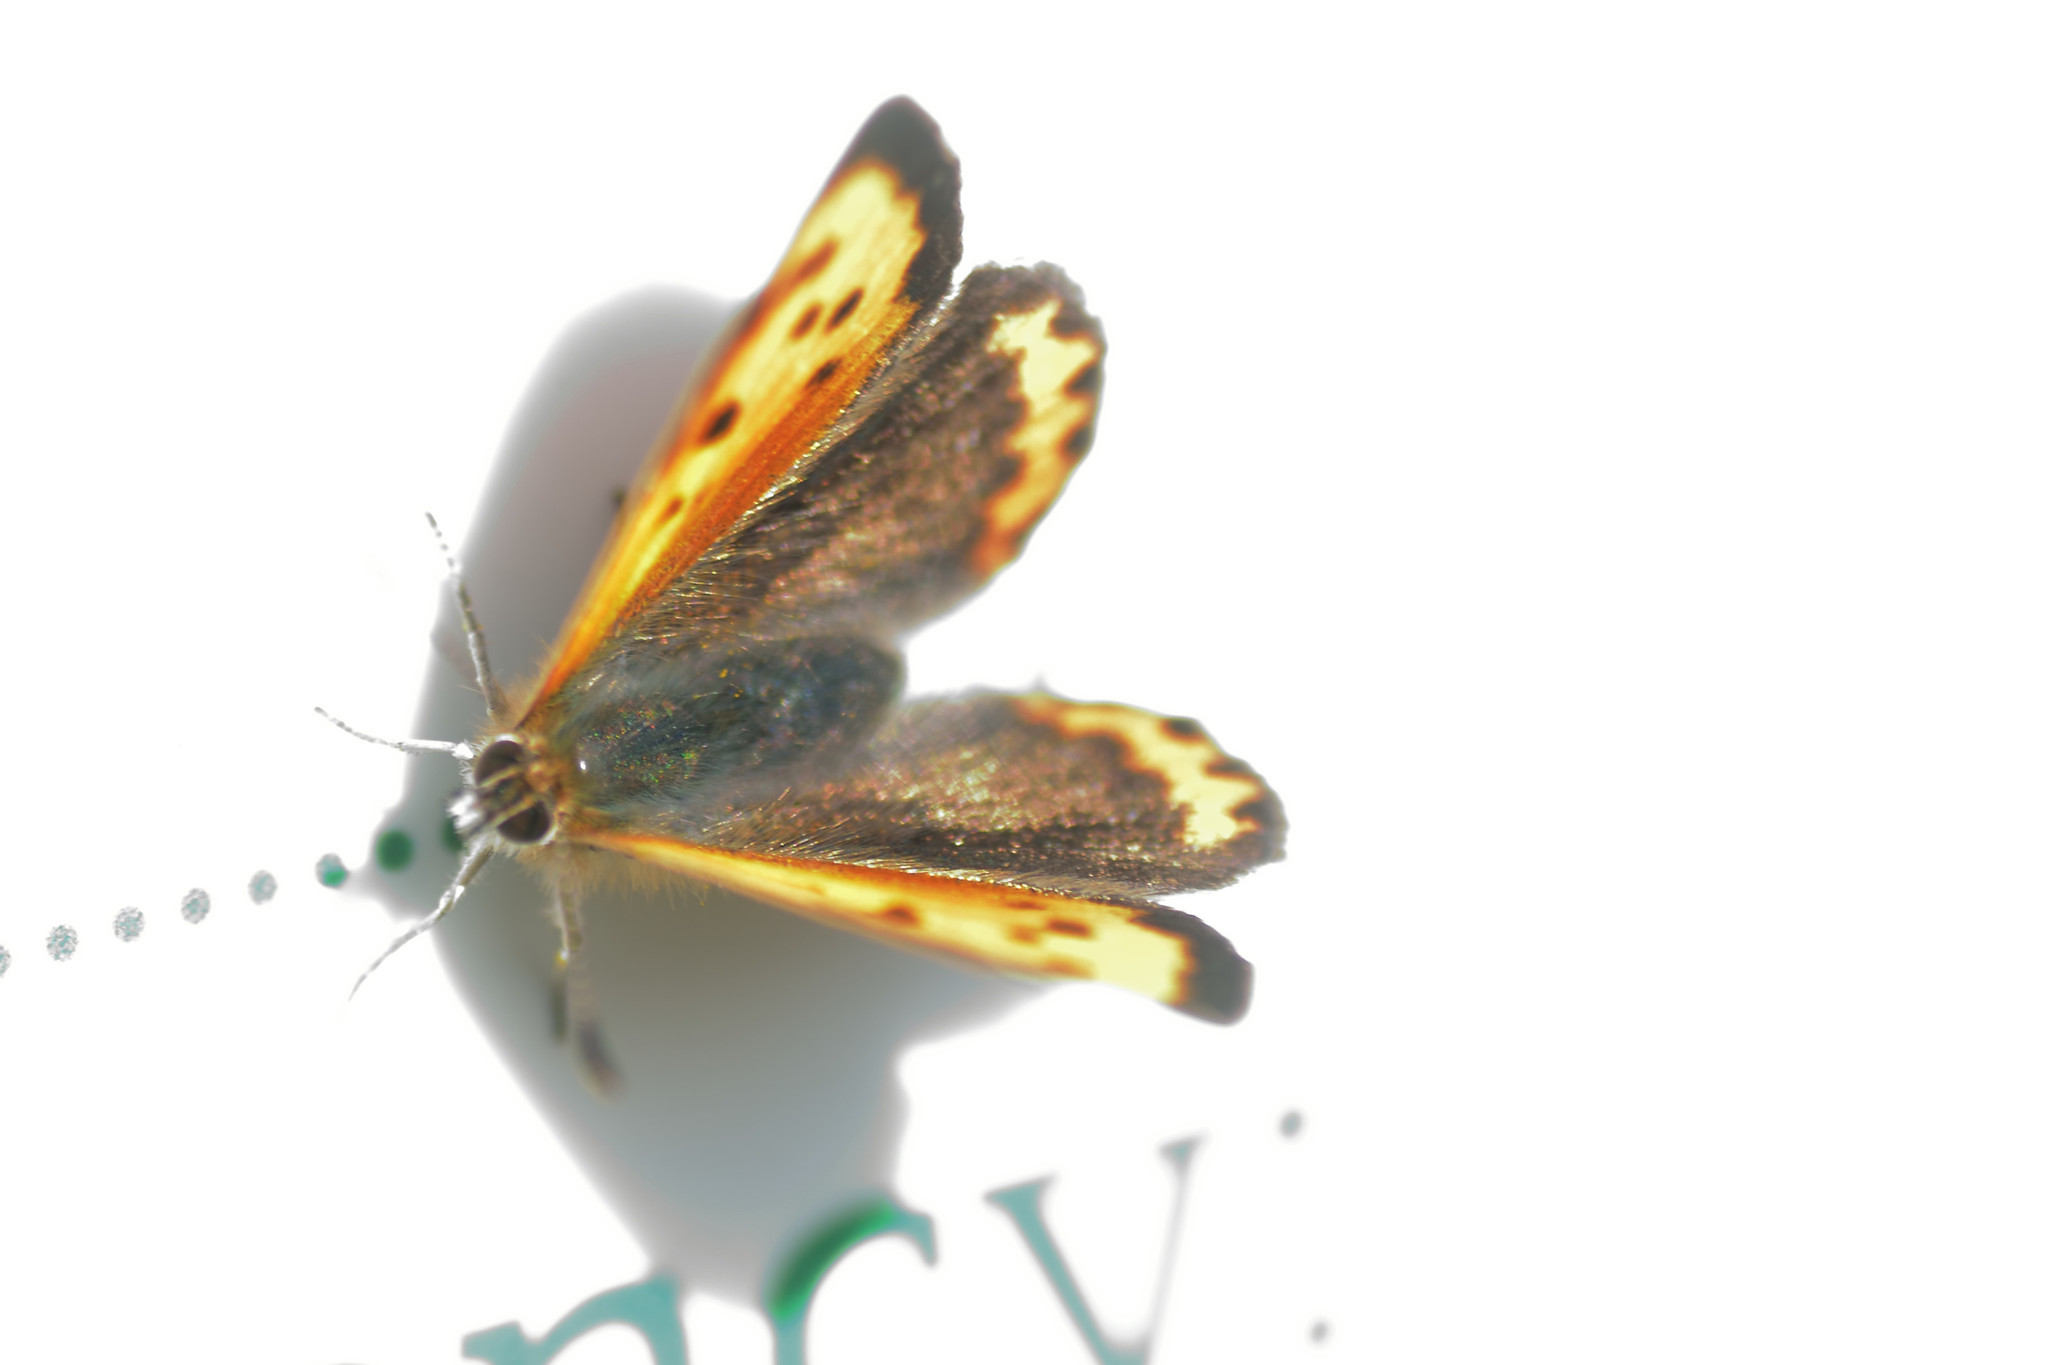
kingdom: Animalia
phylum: Arthropoda
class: Insecta
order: Lepidoptera
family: Lycaenidae
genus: Lycaena
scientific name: Lycaena phlaeas
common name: Small copper
